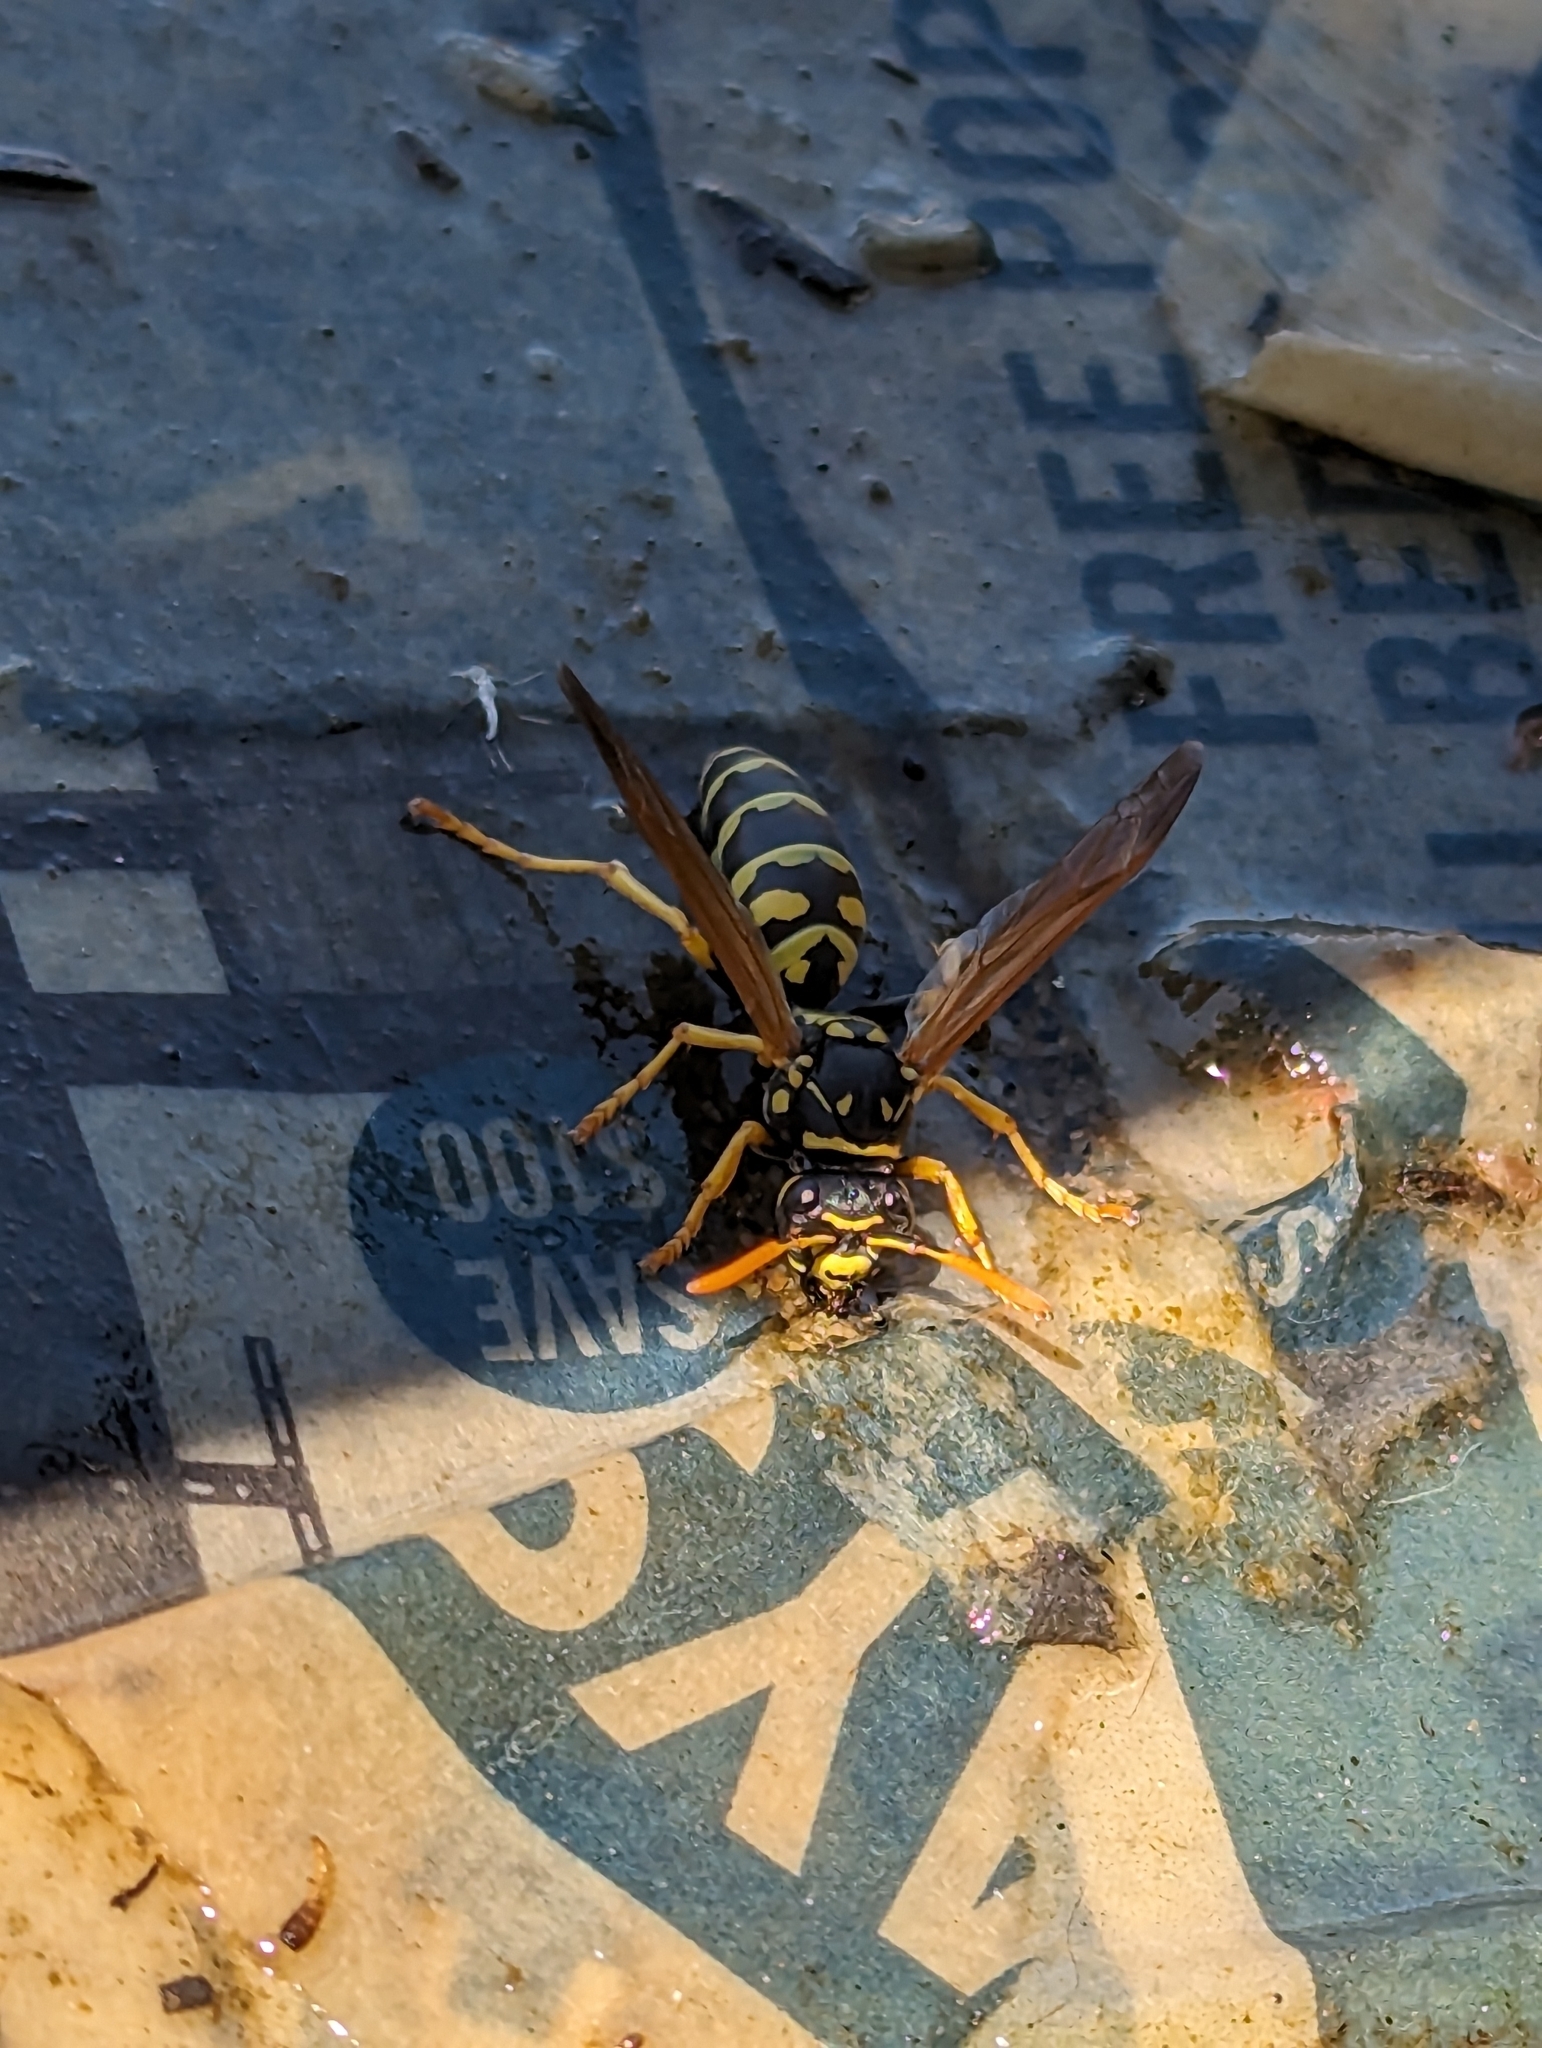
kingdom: Animalia
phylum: Arthropoda
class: Insecta
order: Hymenoptera
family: Eumenidae
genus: Polistes
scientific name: Polistes dominula
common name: Paper wasp
